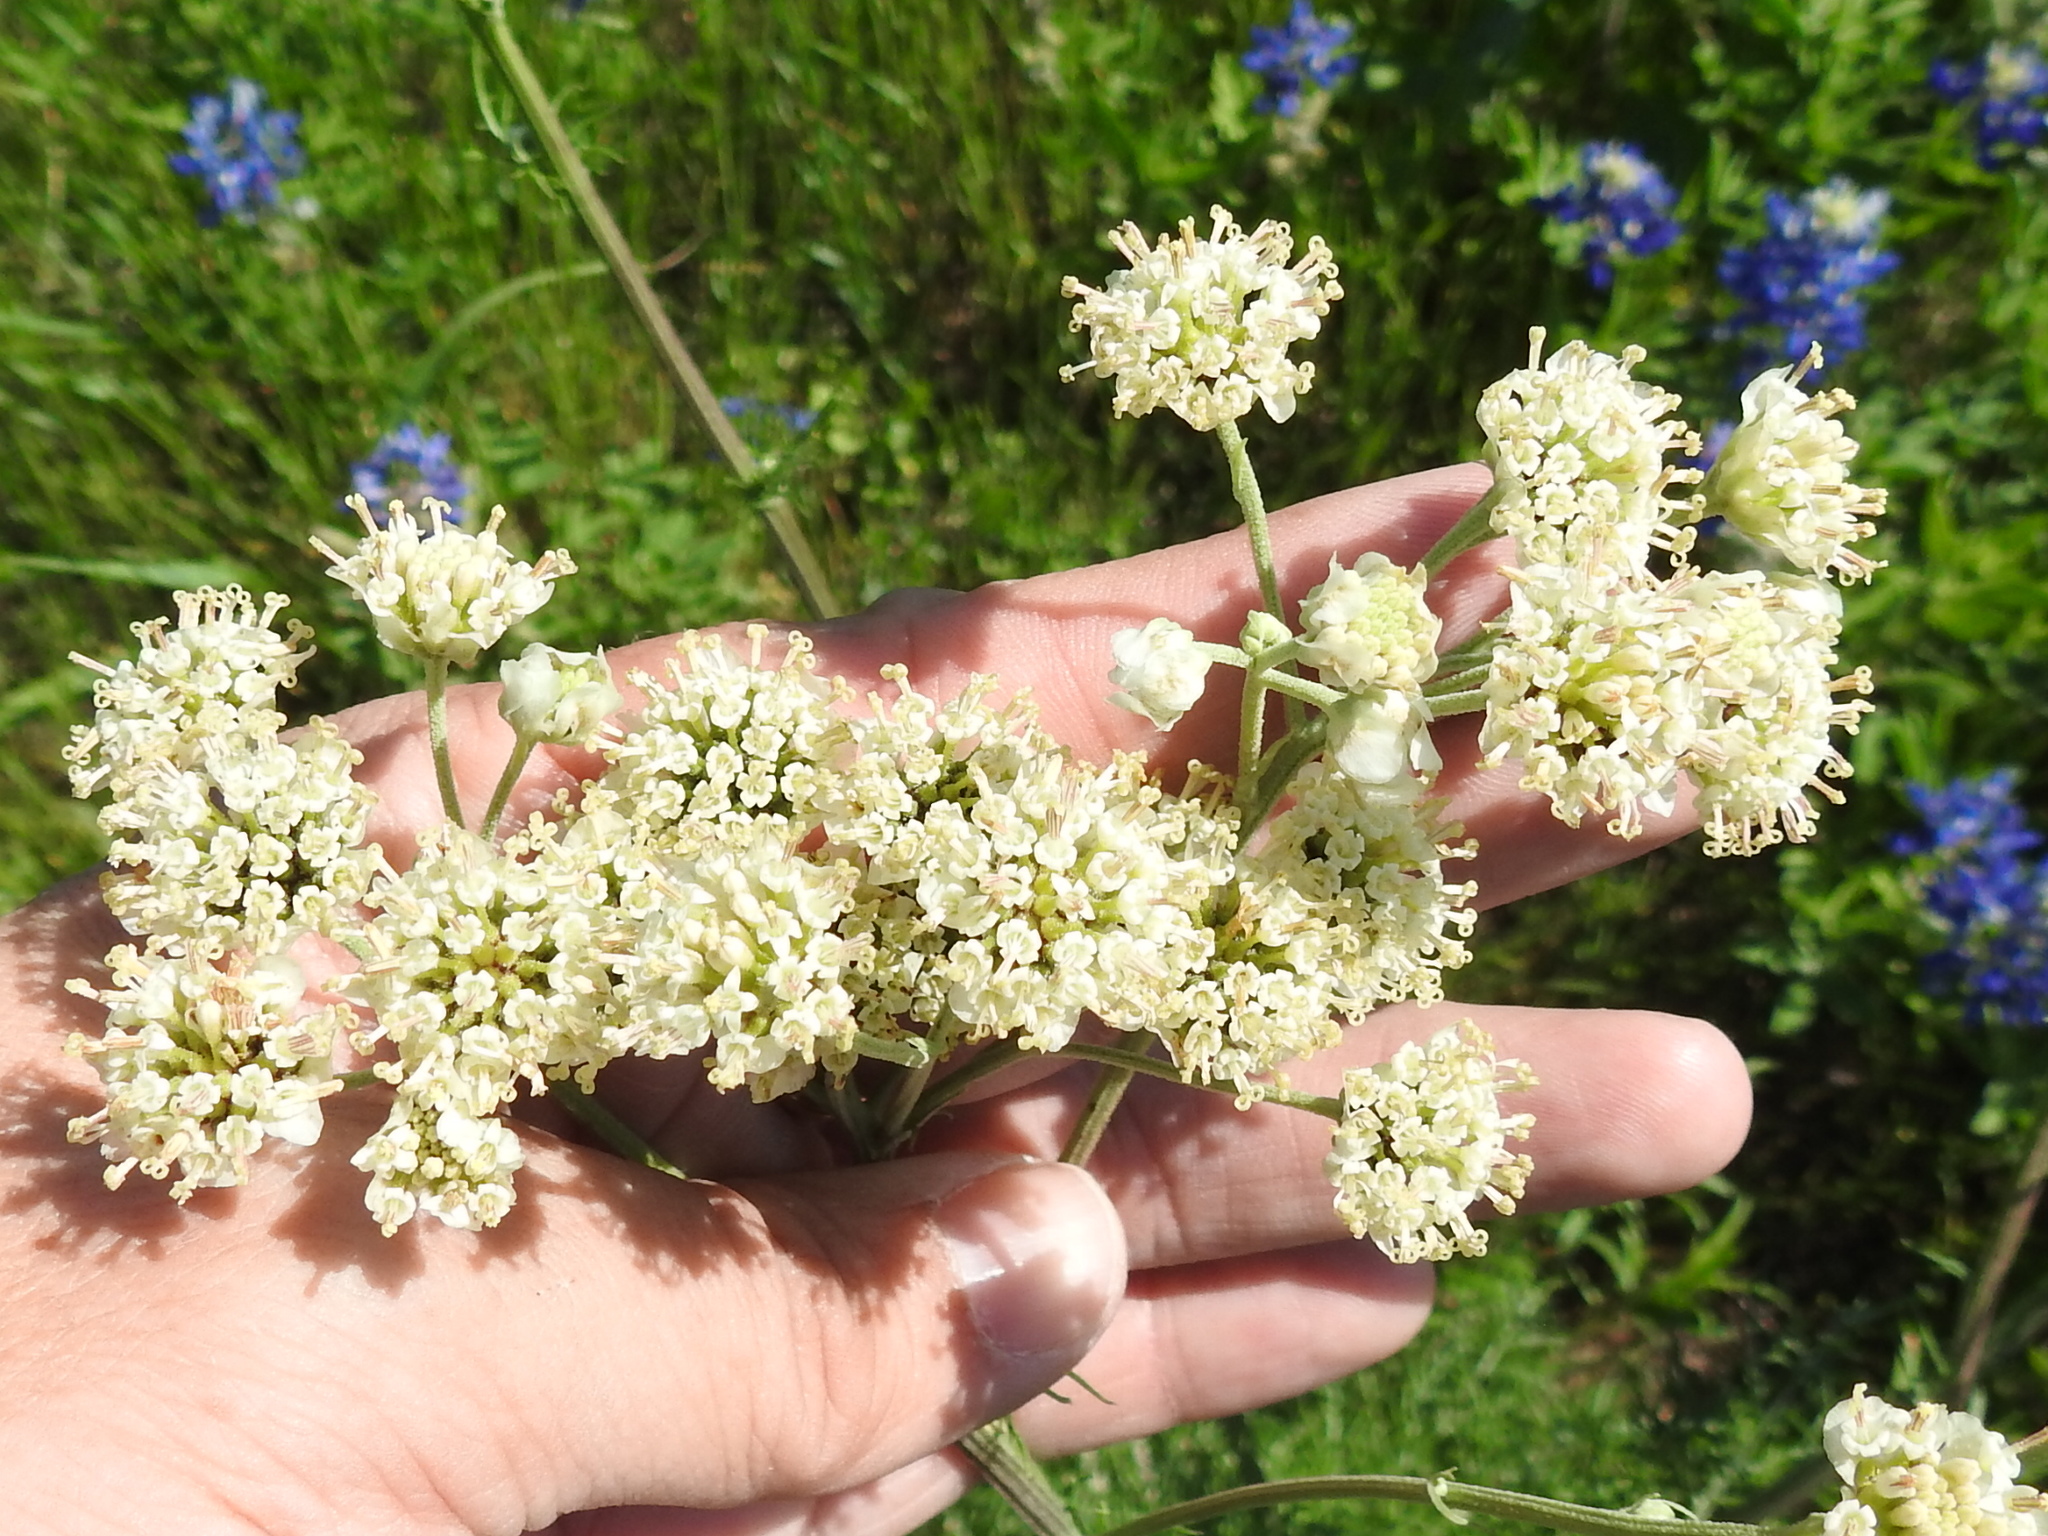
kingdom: Plantae
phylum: Tracheophyta
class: Magnoliopsida
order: Asterales
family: Asteraceae
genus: Hymenopappus
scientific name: Hymenopappus tenuifolius
